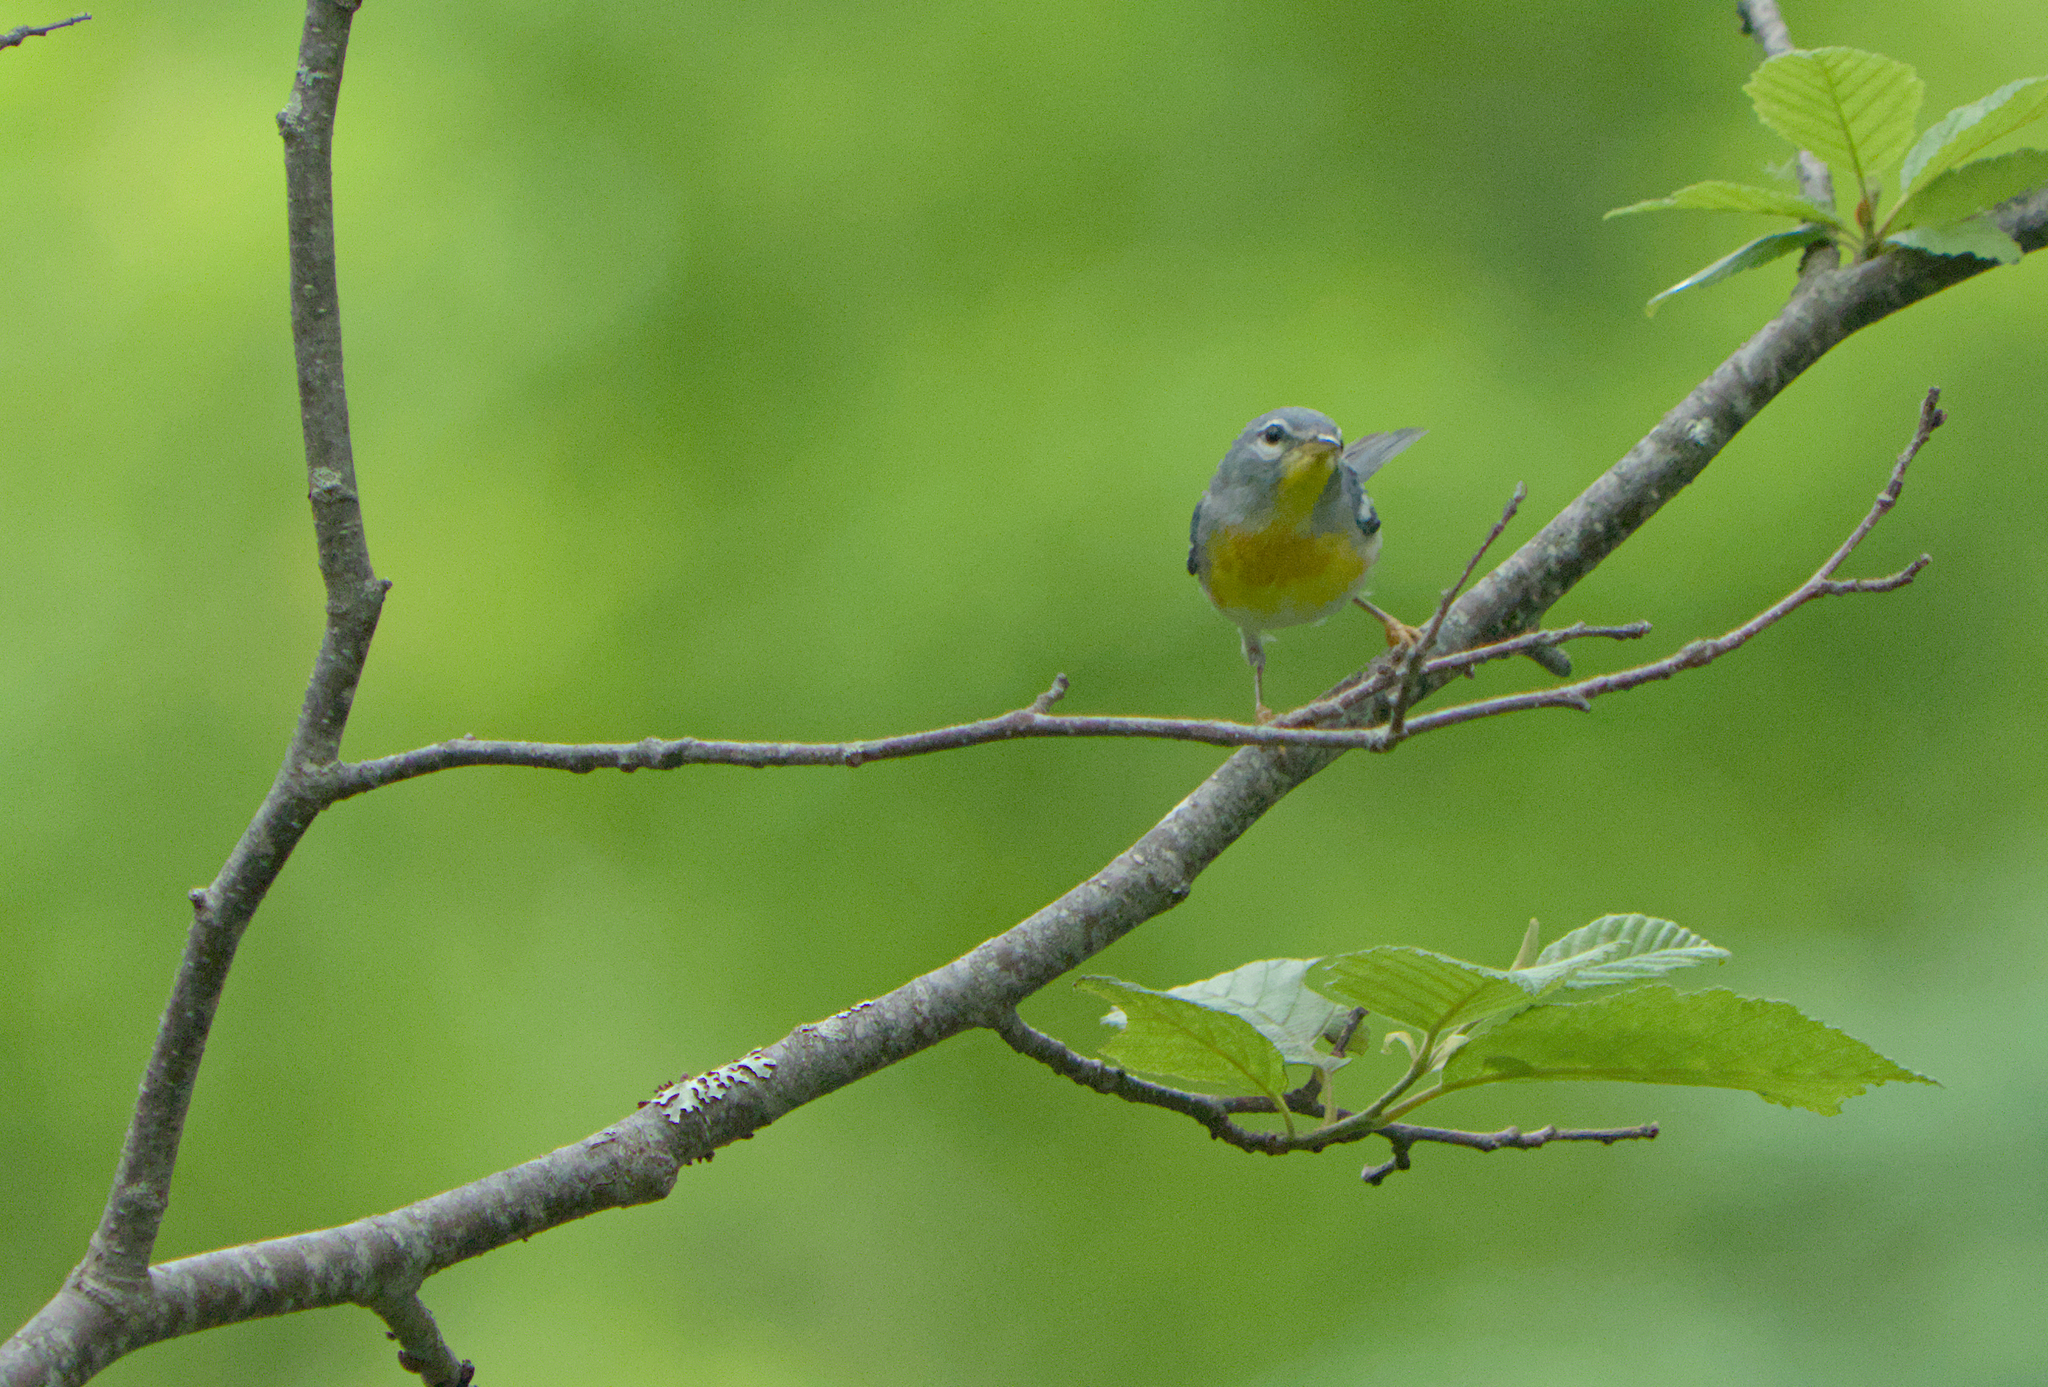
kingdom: Animalia
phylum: Chordata
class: Aves
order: Passeriformes
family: Parulidae
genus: Setophaga
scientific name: Setophaga americana
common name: Northern parula
